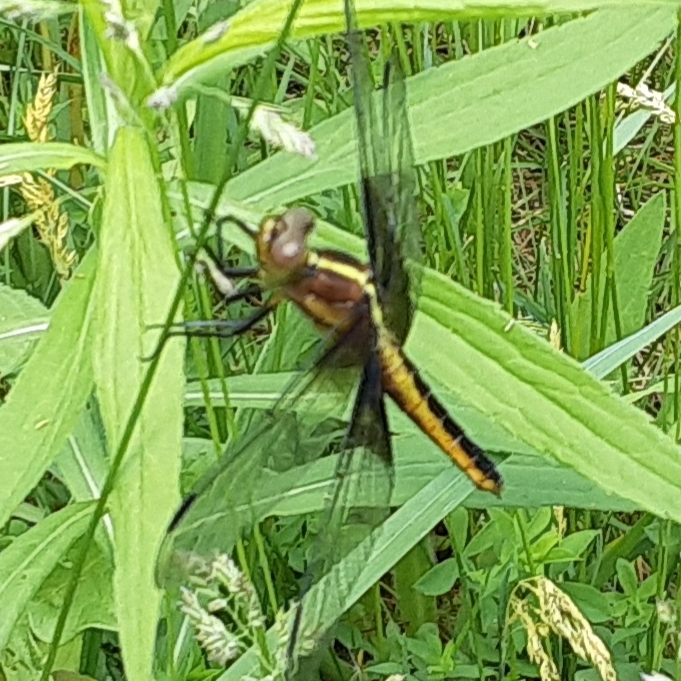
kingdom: Animalia
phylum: Arthropoda
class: Insecta
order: Odonata
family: Libellulidae
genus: Libellula
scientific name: Libellula luctuosa
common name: Widow skimmer
